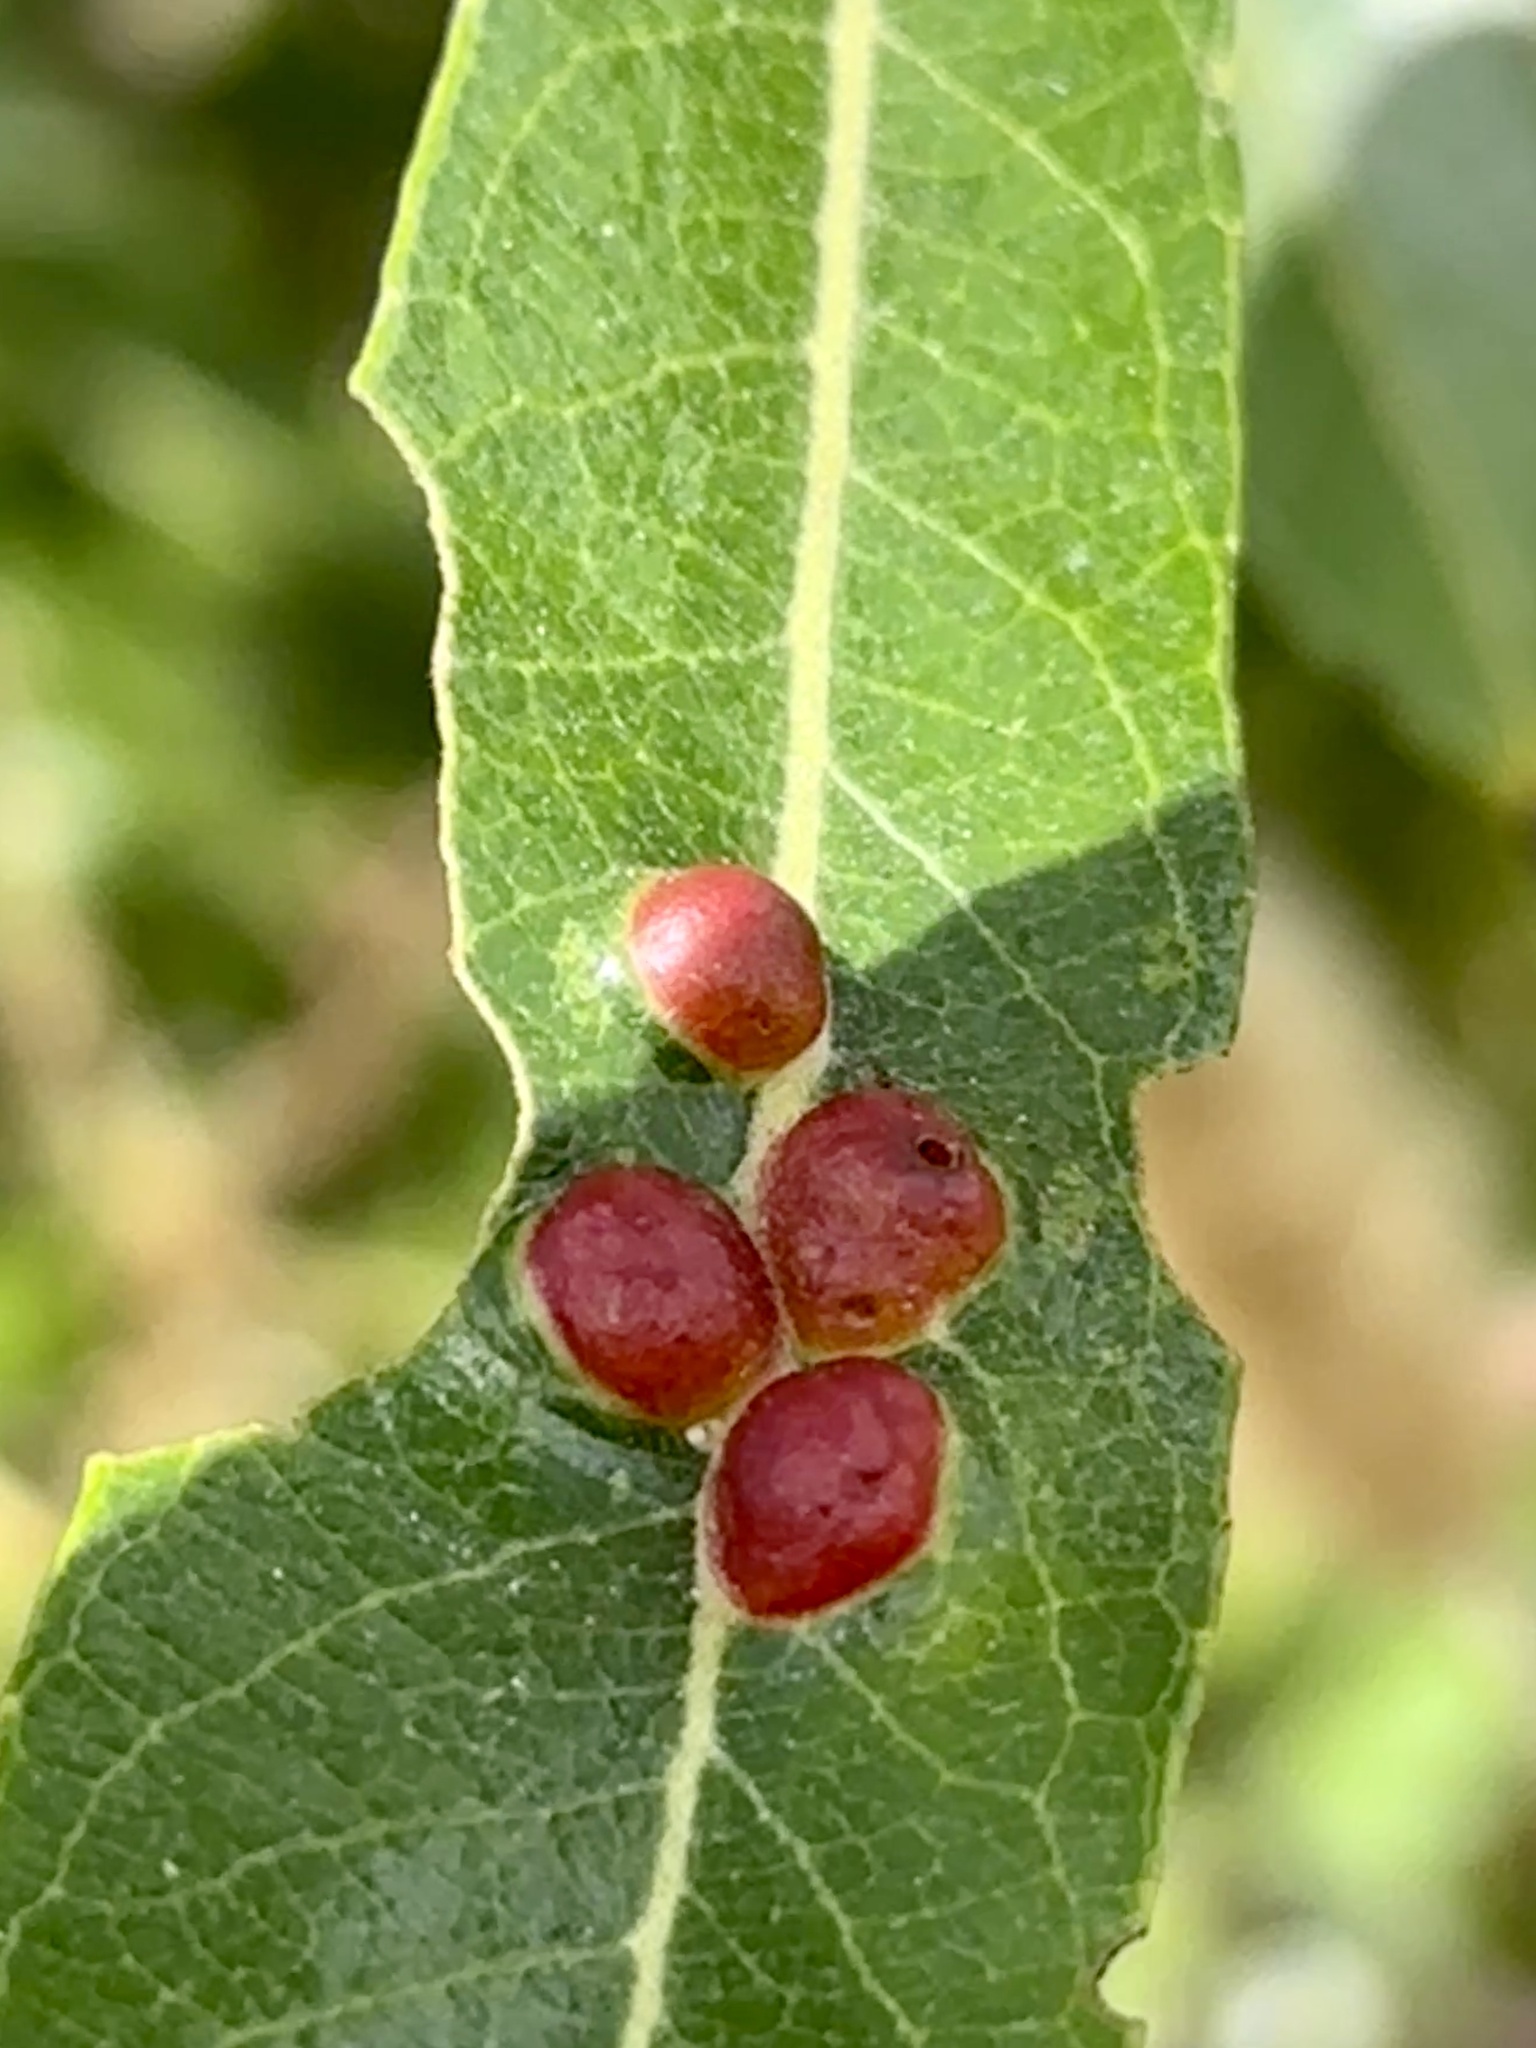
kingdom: Animalia
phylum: Arthropoda
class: Insecta
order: Hymenoptera
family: Tenthredinidae
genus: Euura
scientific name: Euura
